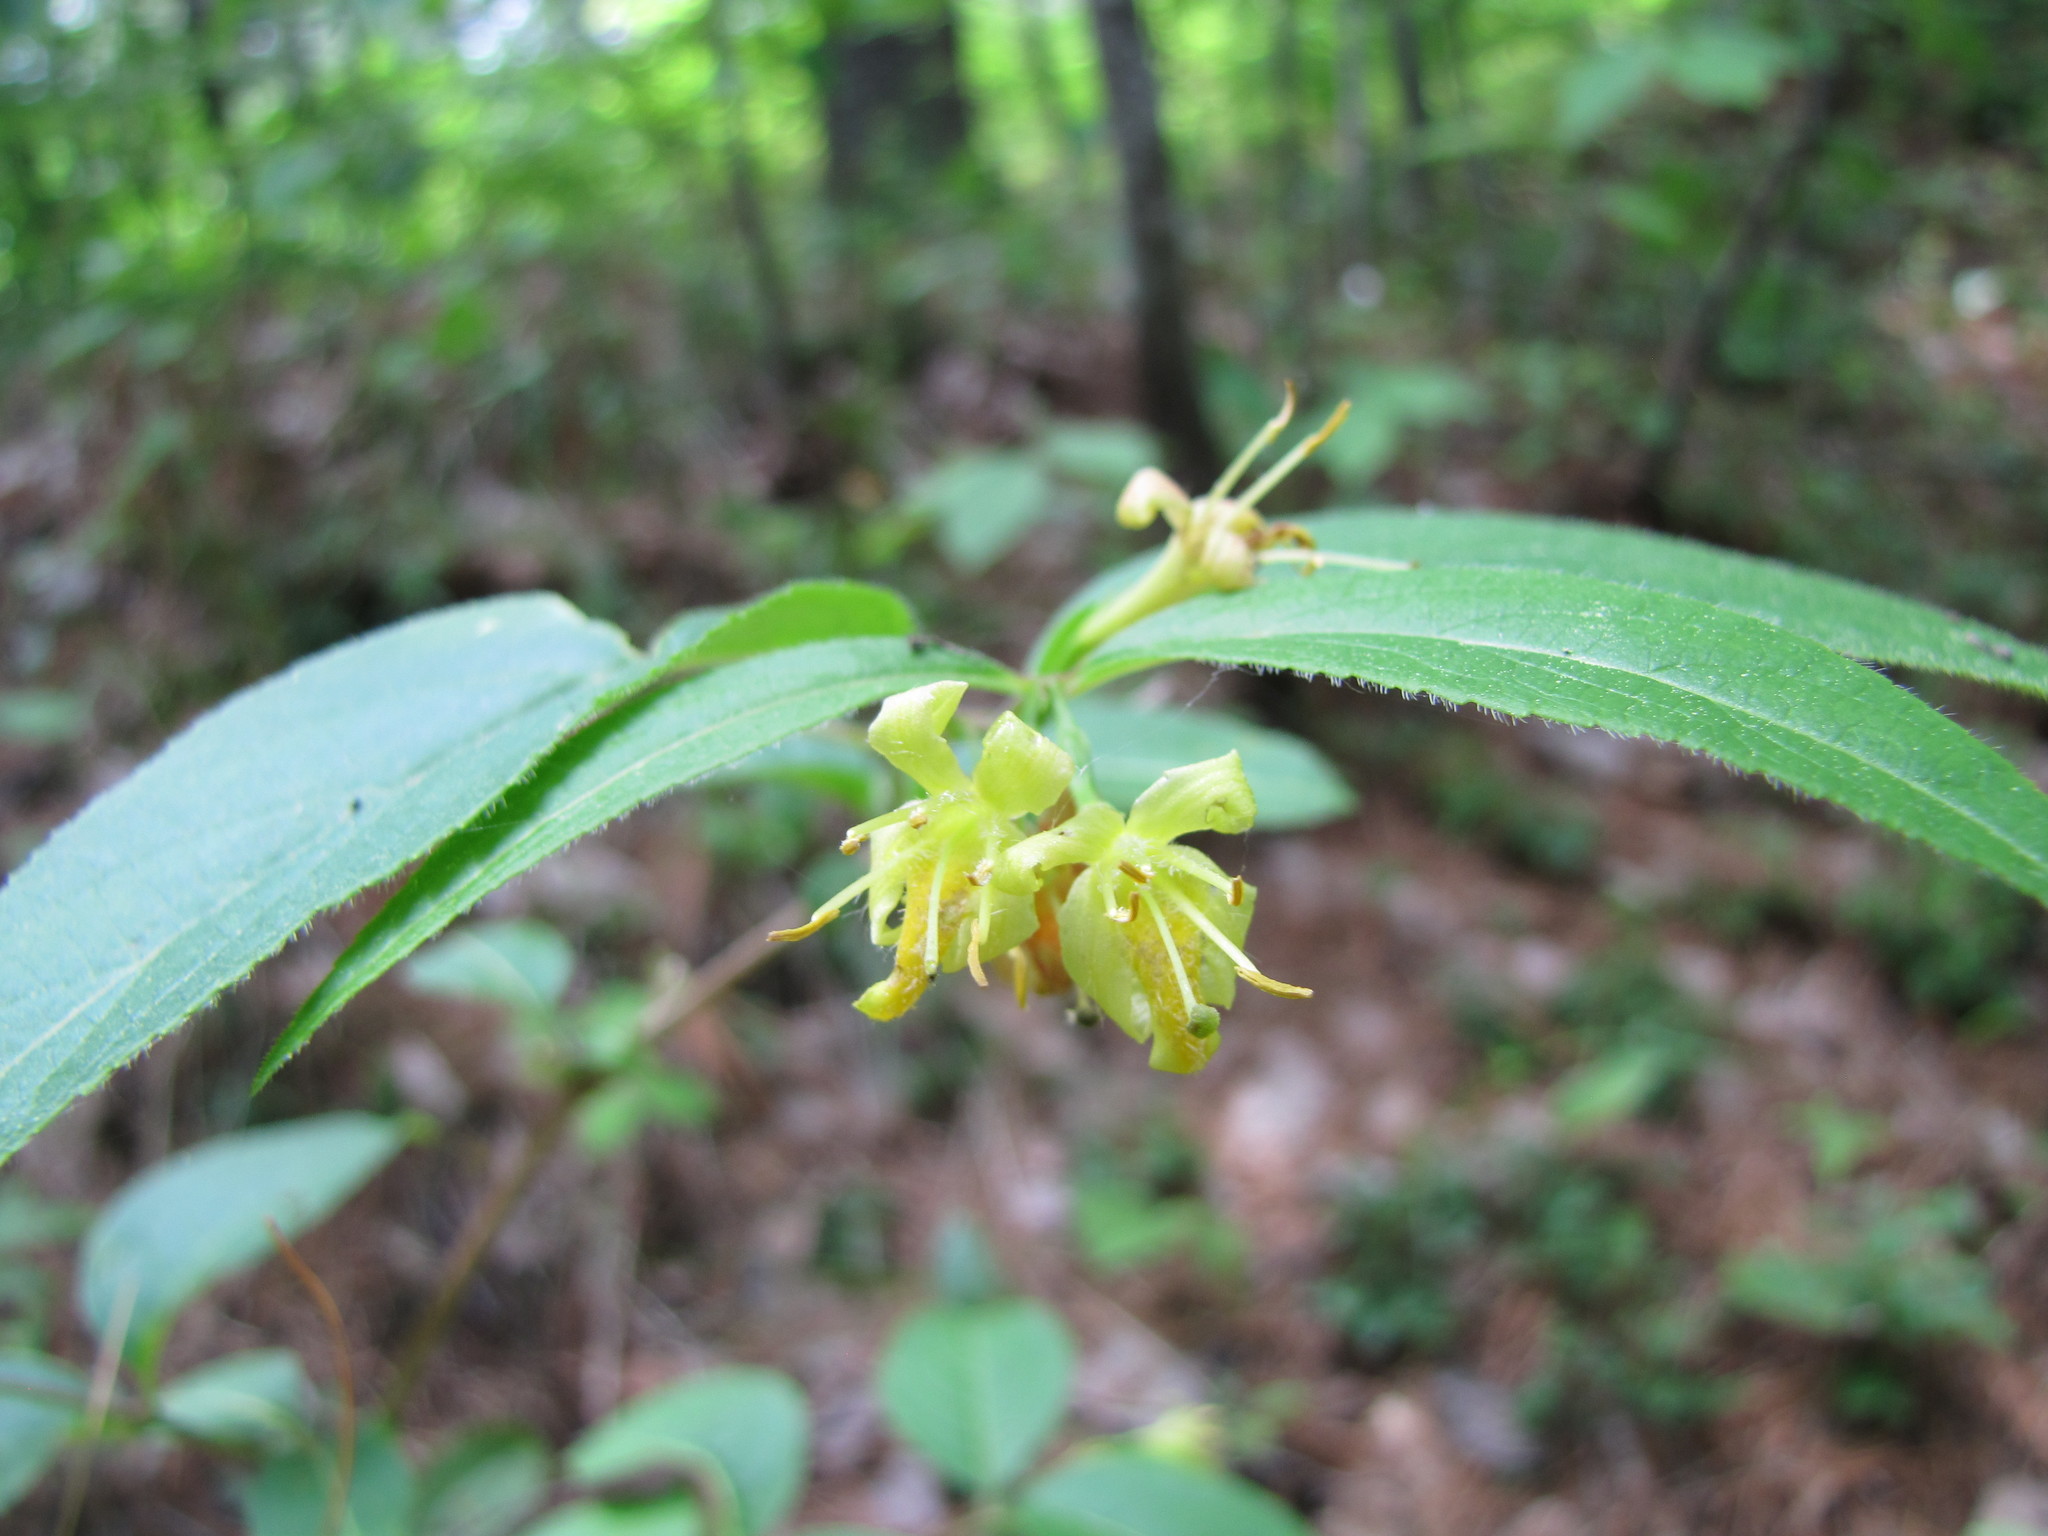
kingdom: Plantae
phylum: Tracheophyta
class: Magnoliopsida
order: Dipsacales
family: Caprifoliaceae
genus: Diervilla
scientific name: Diervilla lonicera
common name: Bush-honeysuckle
